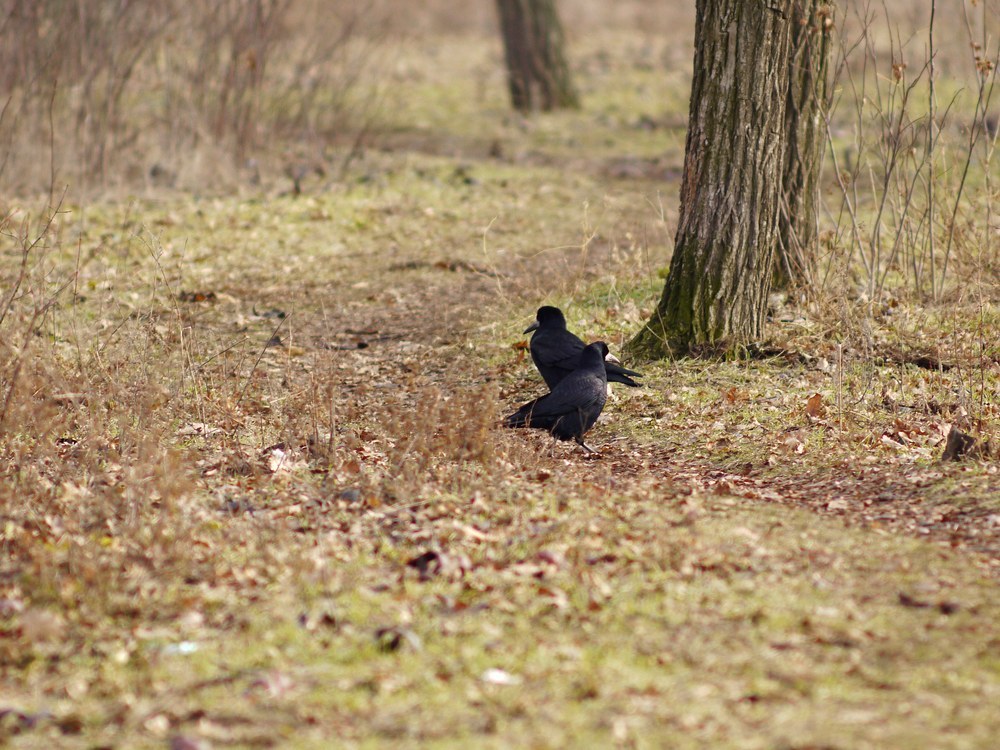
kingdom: Animalia
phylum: Chordata
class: Aves
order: Passeriformes
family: Corvidae
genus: Corvus
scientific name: Corvus frugilegus
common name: Rook
